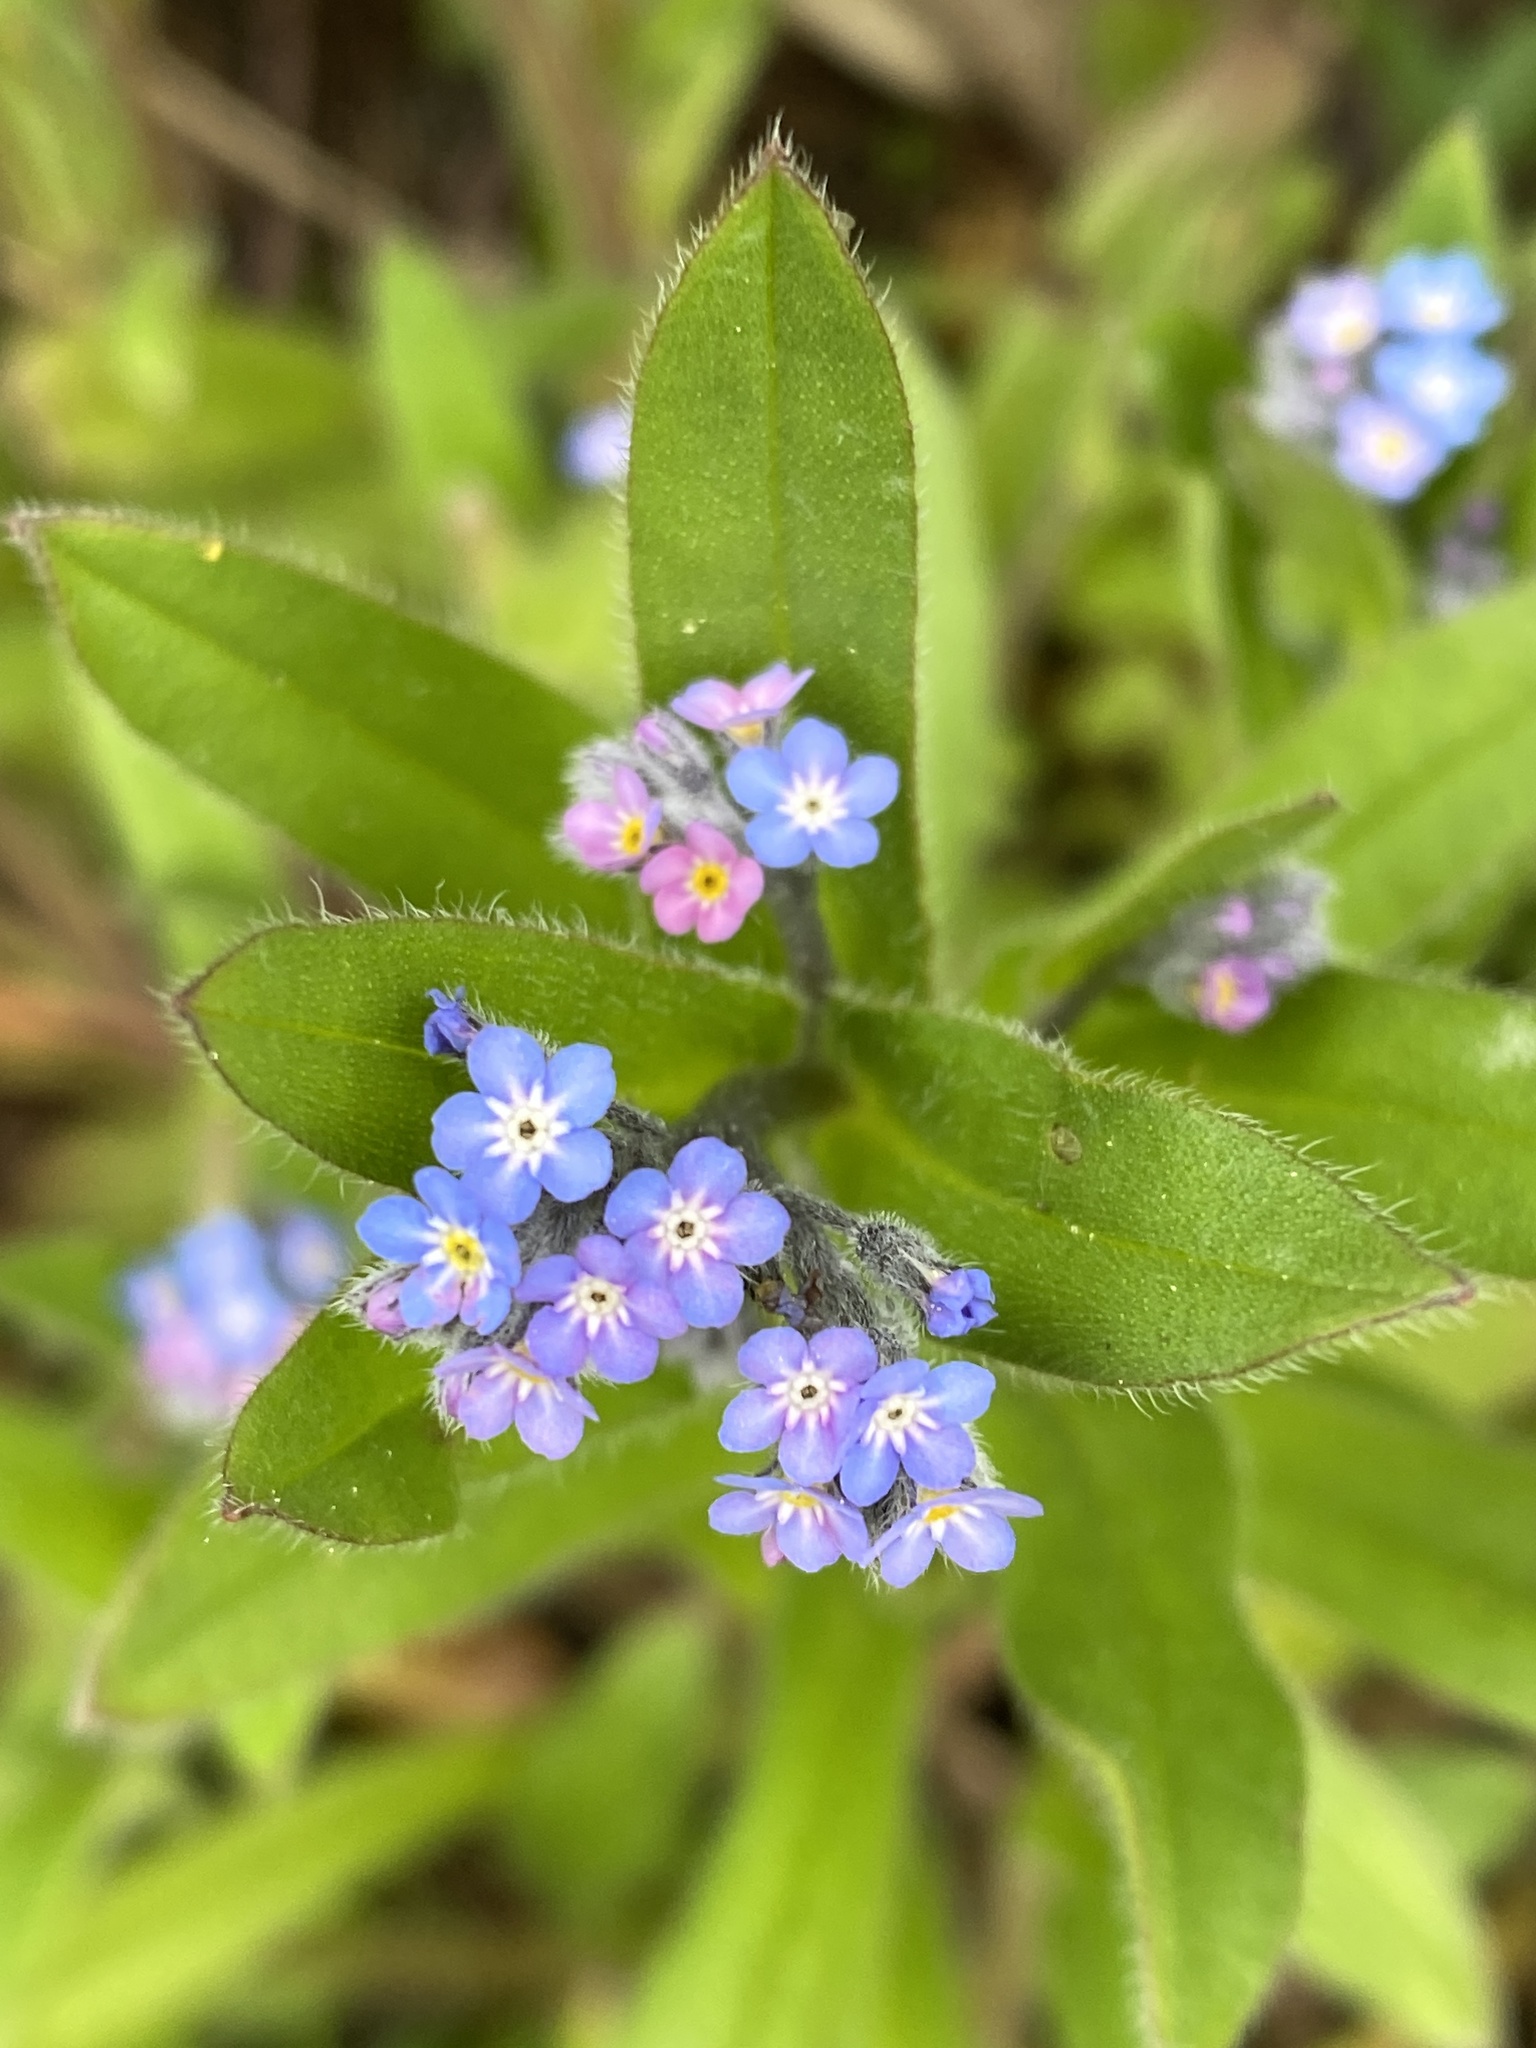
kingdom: Plantae
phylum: Tracheophyta
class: Magnoliopsida
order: Boraginales
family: Boraginaceae
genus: Myosotis
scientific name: Myosotis arvensis
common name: Field forget-me-not
